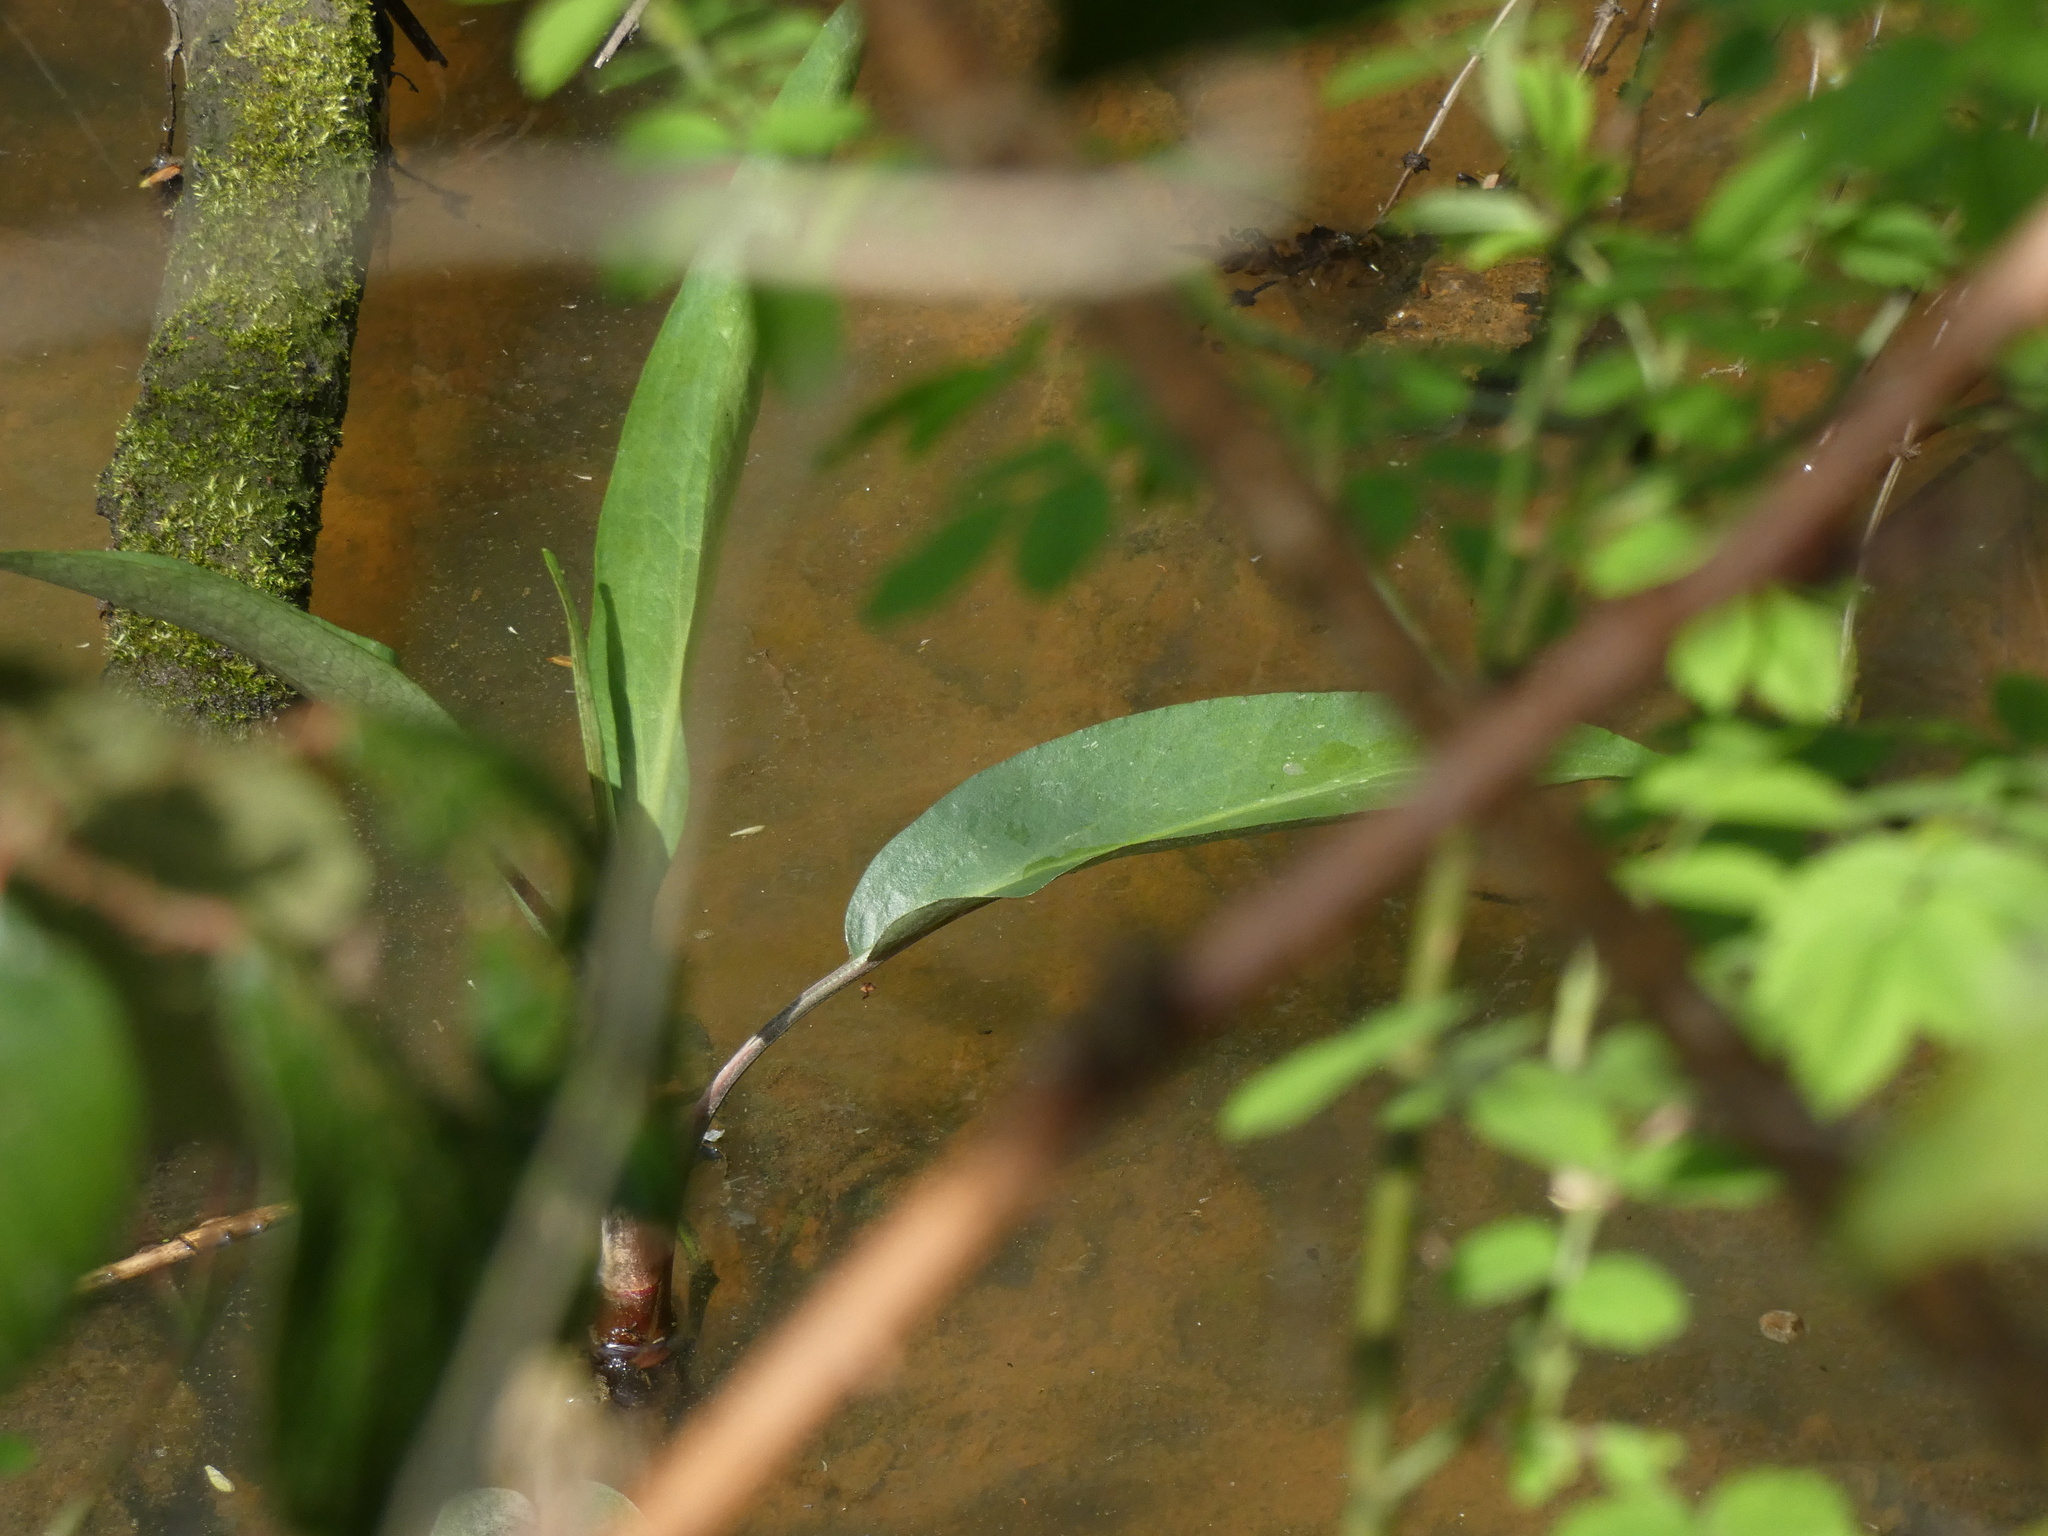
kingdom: Plantae
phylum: Tracheophyta
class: Magnoliopsida
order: Ranunculales
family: Ranunculaceae
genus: Ranunculus
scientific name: Ranunculus lingua
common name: Greater spearwort
